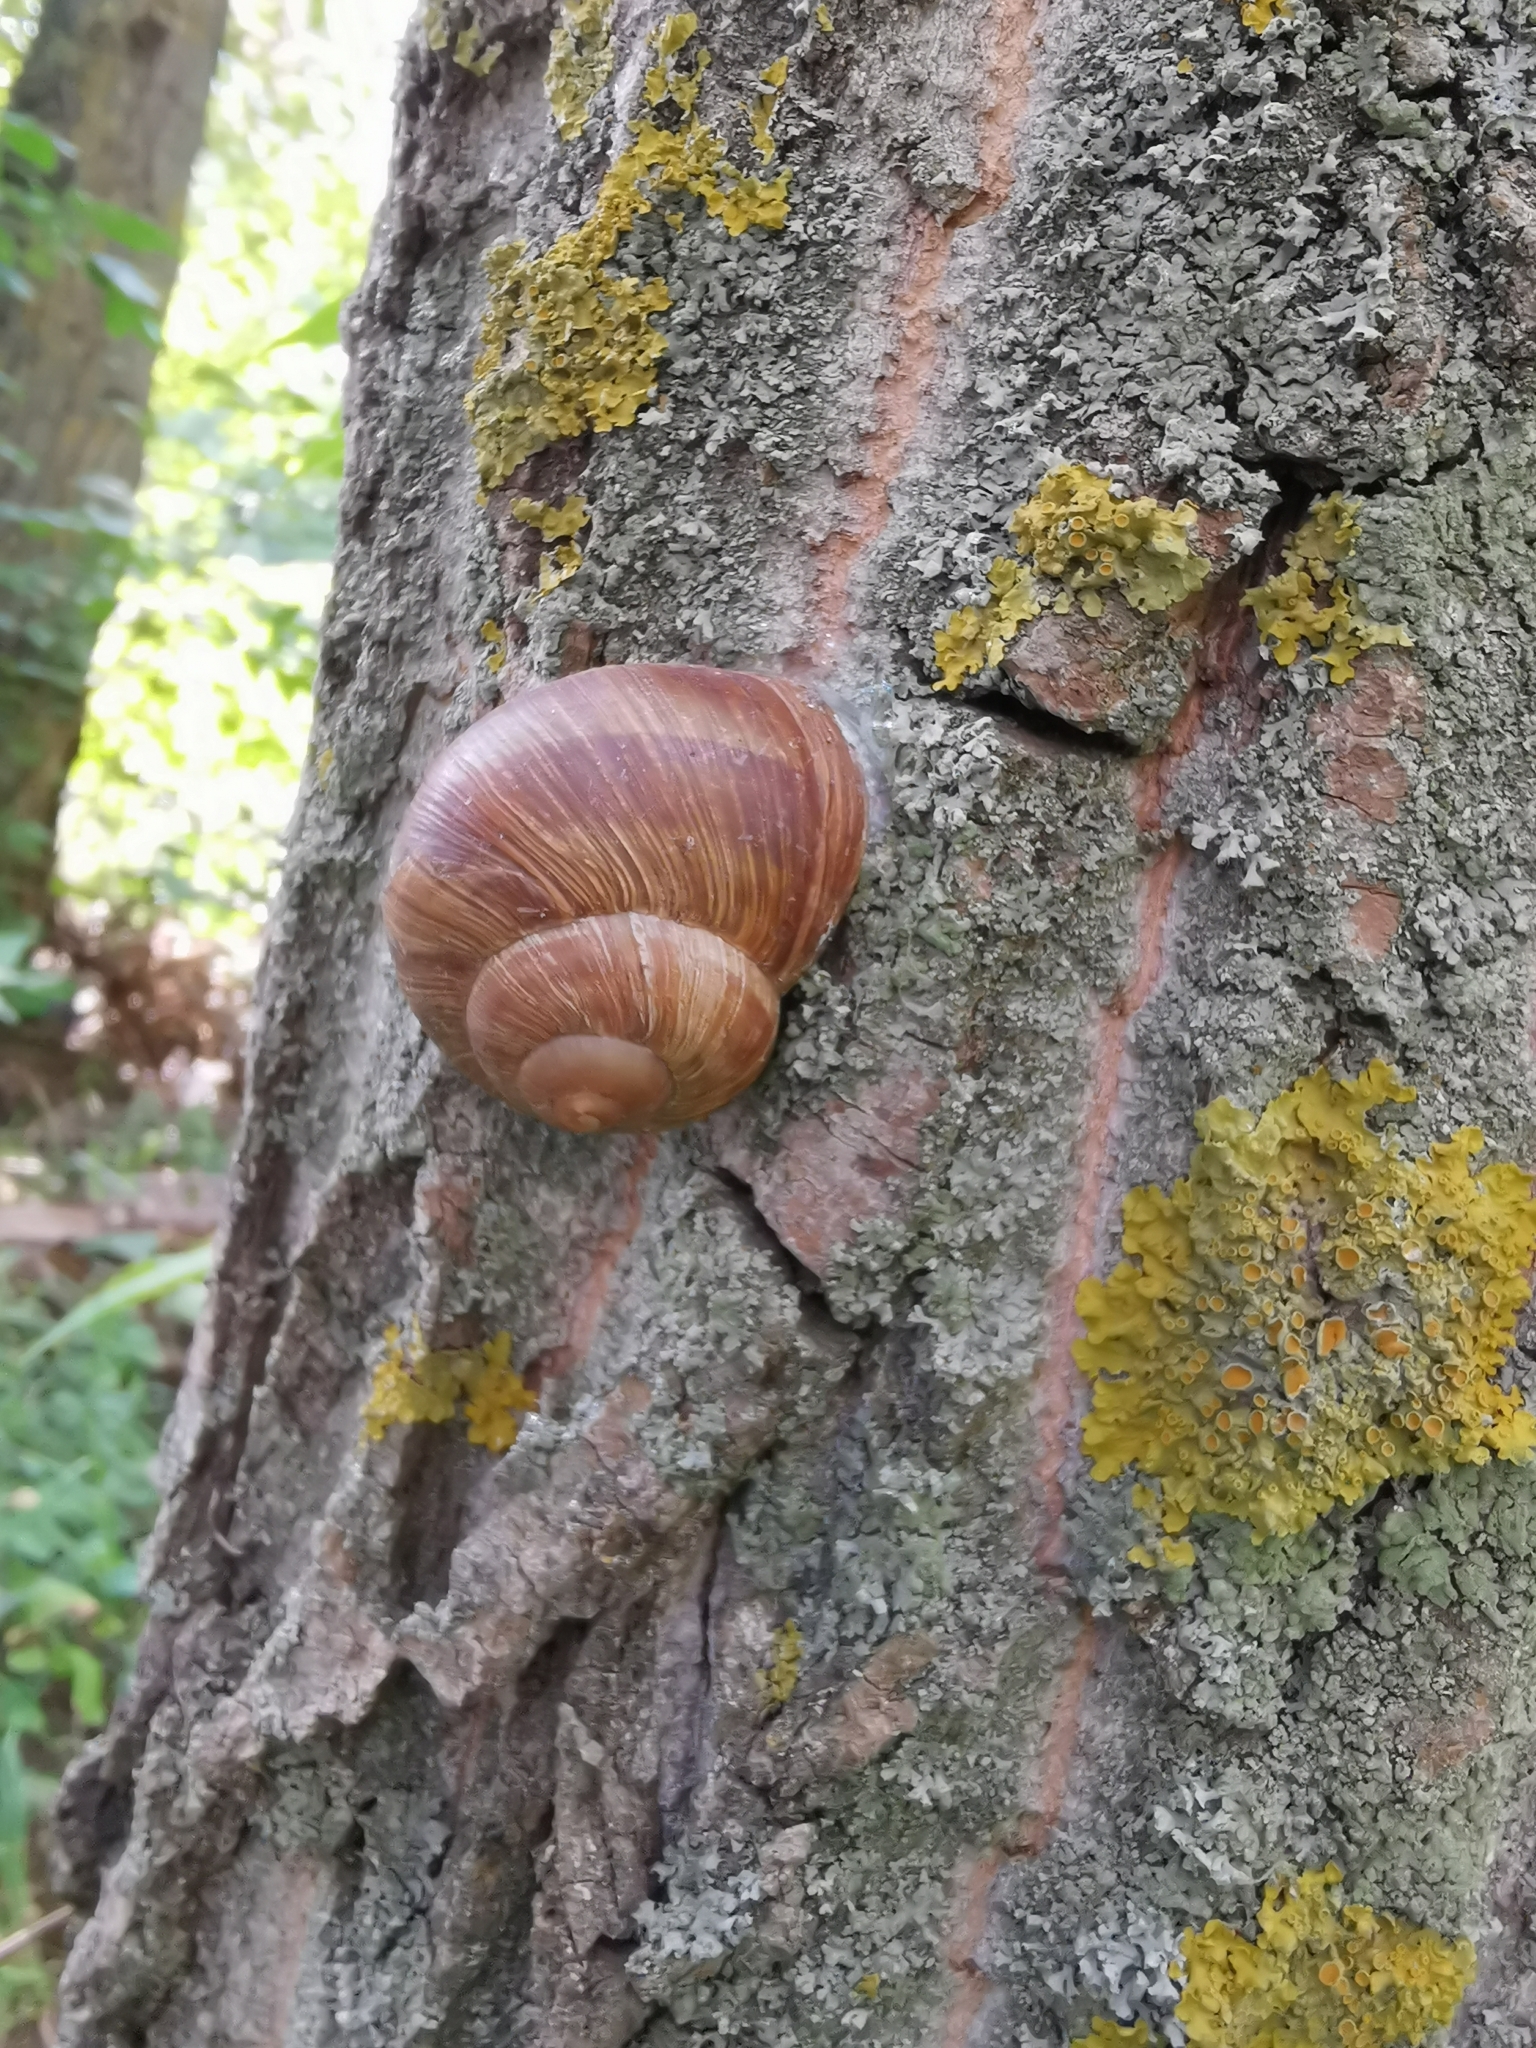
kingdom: Animalia
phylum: Mollusca
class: Gastropoda
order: Stylommatophora
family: Helicidae
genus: Helix
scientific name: Helix pomatia
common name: Roman snail
